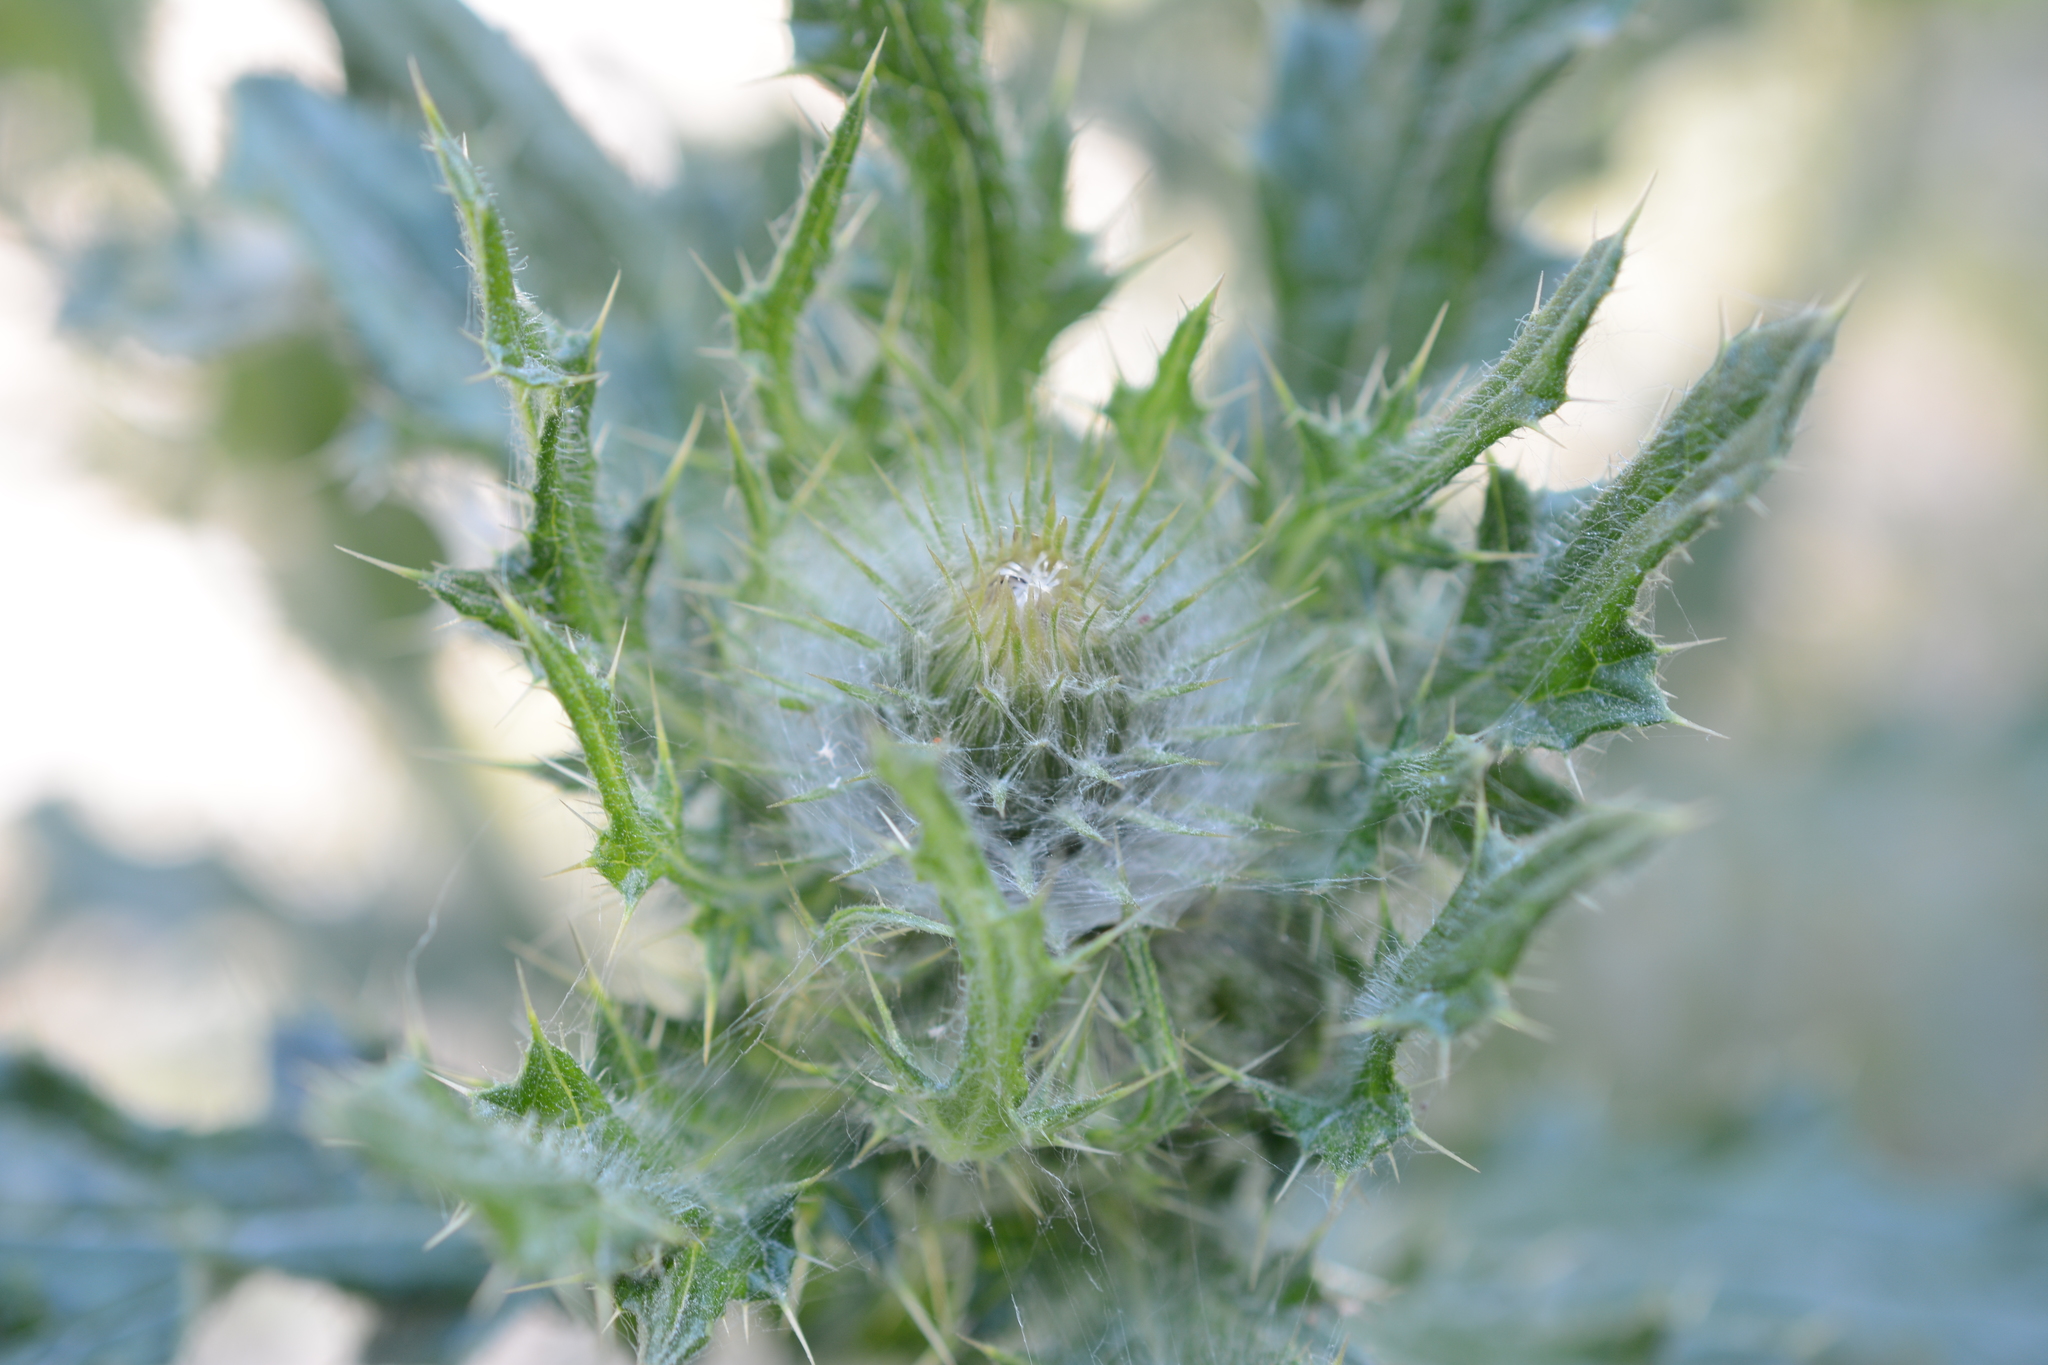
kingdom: Plantae
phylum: Tracheophyta
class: Magnoliopsida
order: Asterales
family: Asteraceae
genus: Cirsium
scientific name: Cirsium edule
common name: Indian thistle
